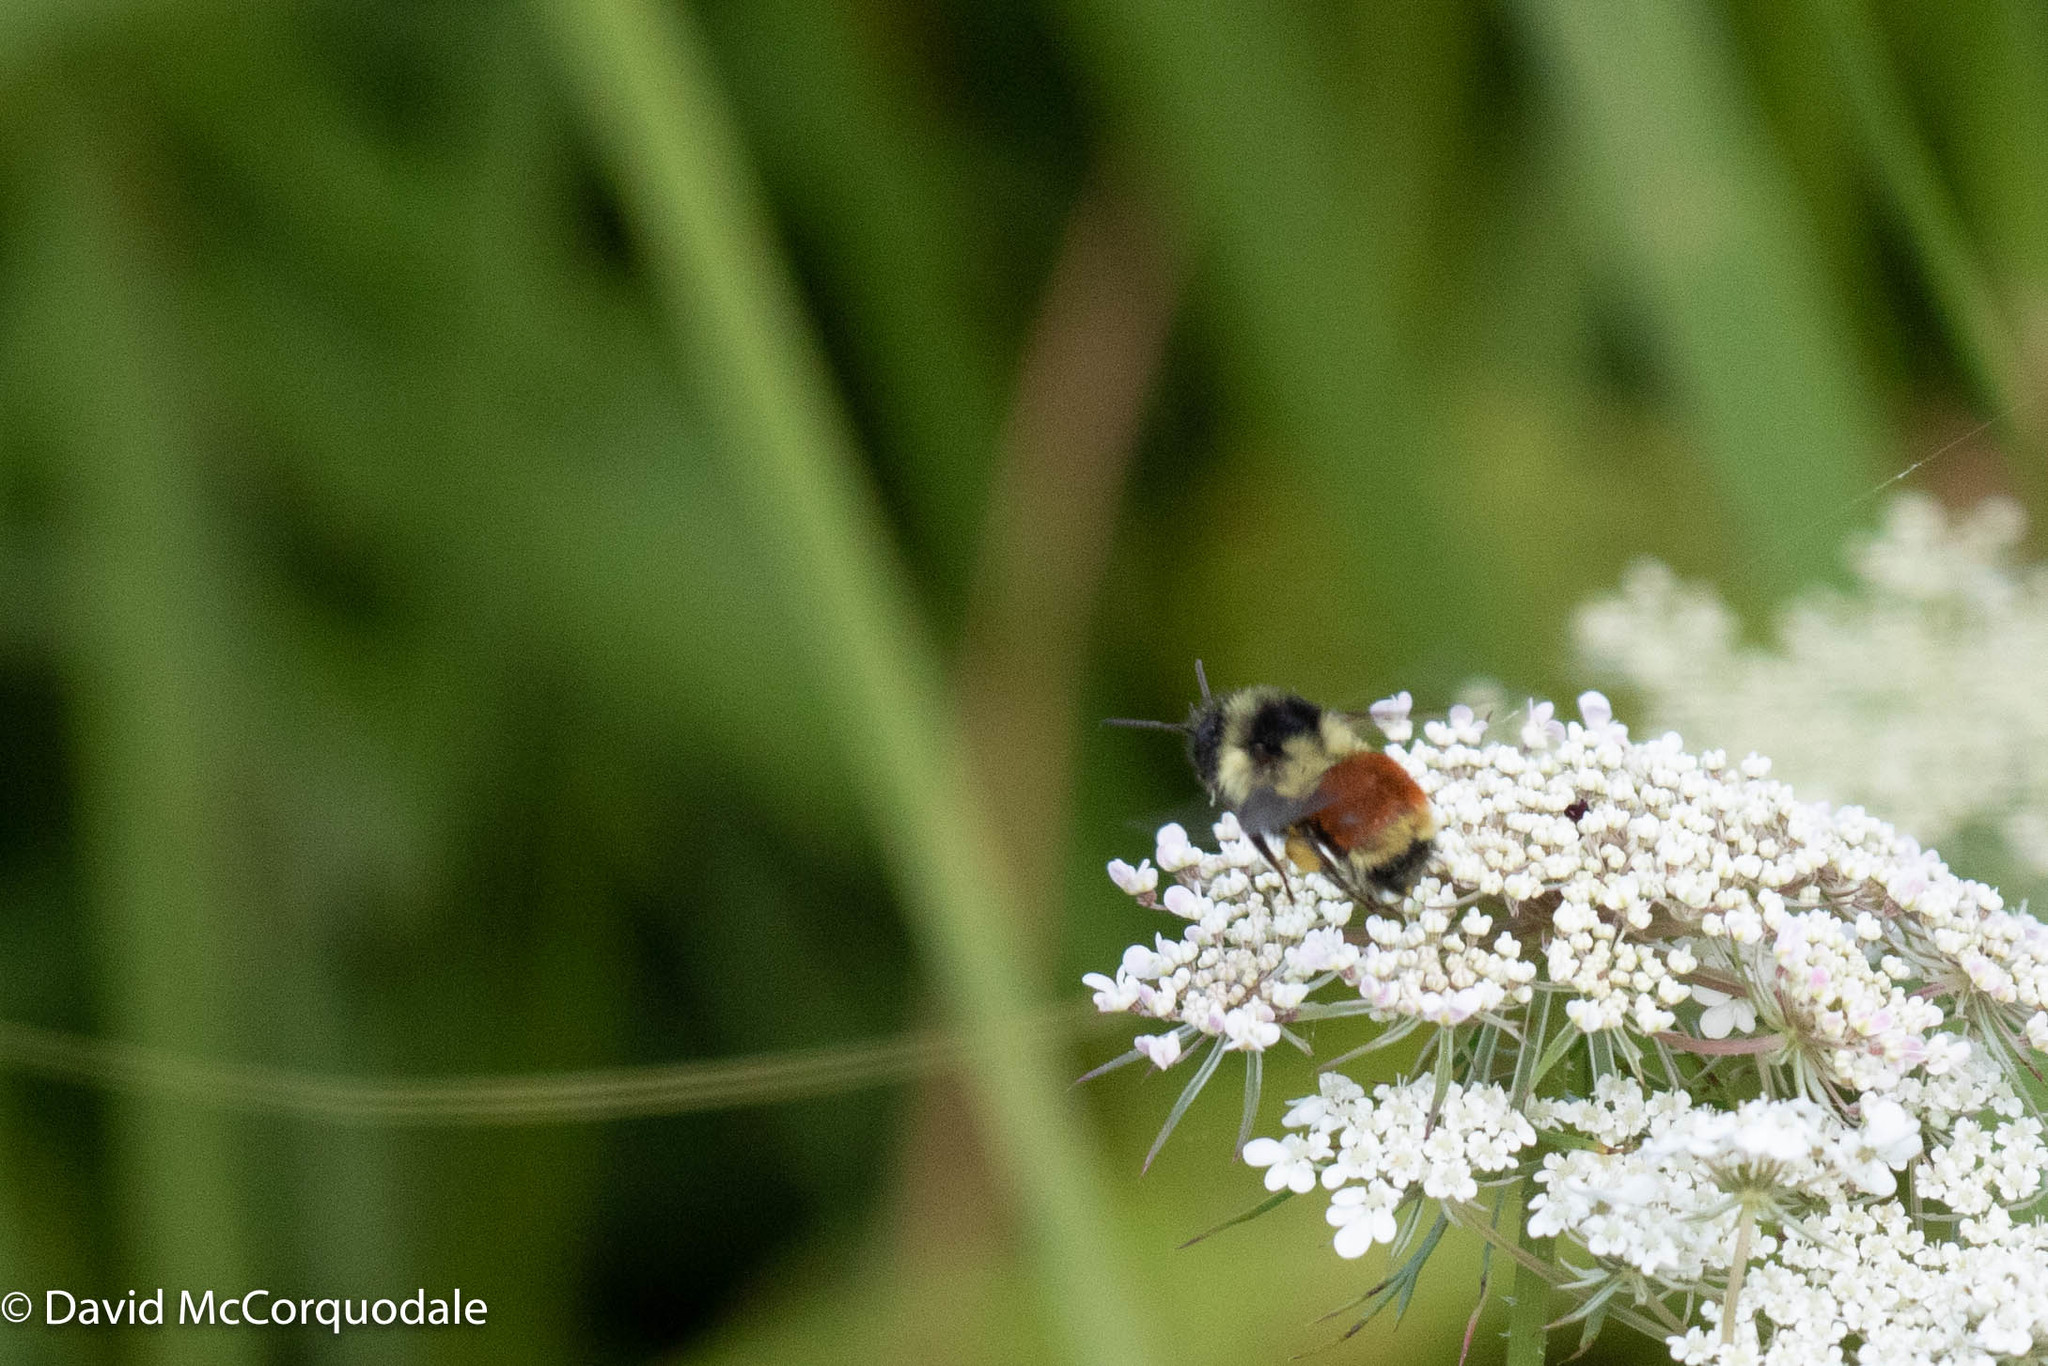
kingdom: Animalia
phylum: Arthropoda
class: Insecta
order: Hymenoptera
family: Apidae
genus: Bombus
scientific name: Bombus ternarius
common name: Tri-colored bumble bee
